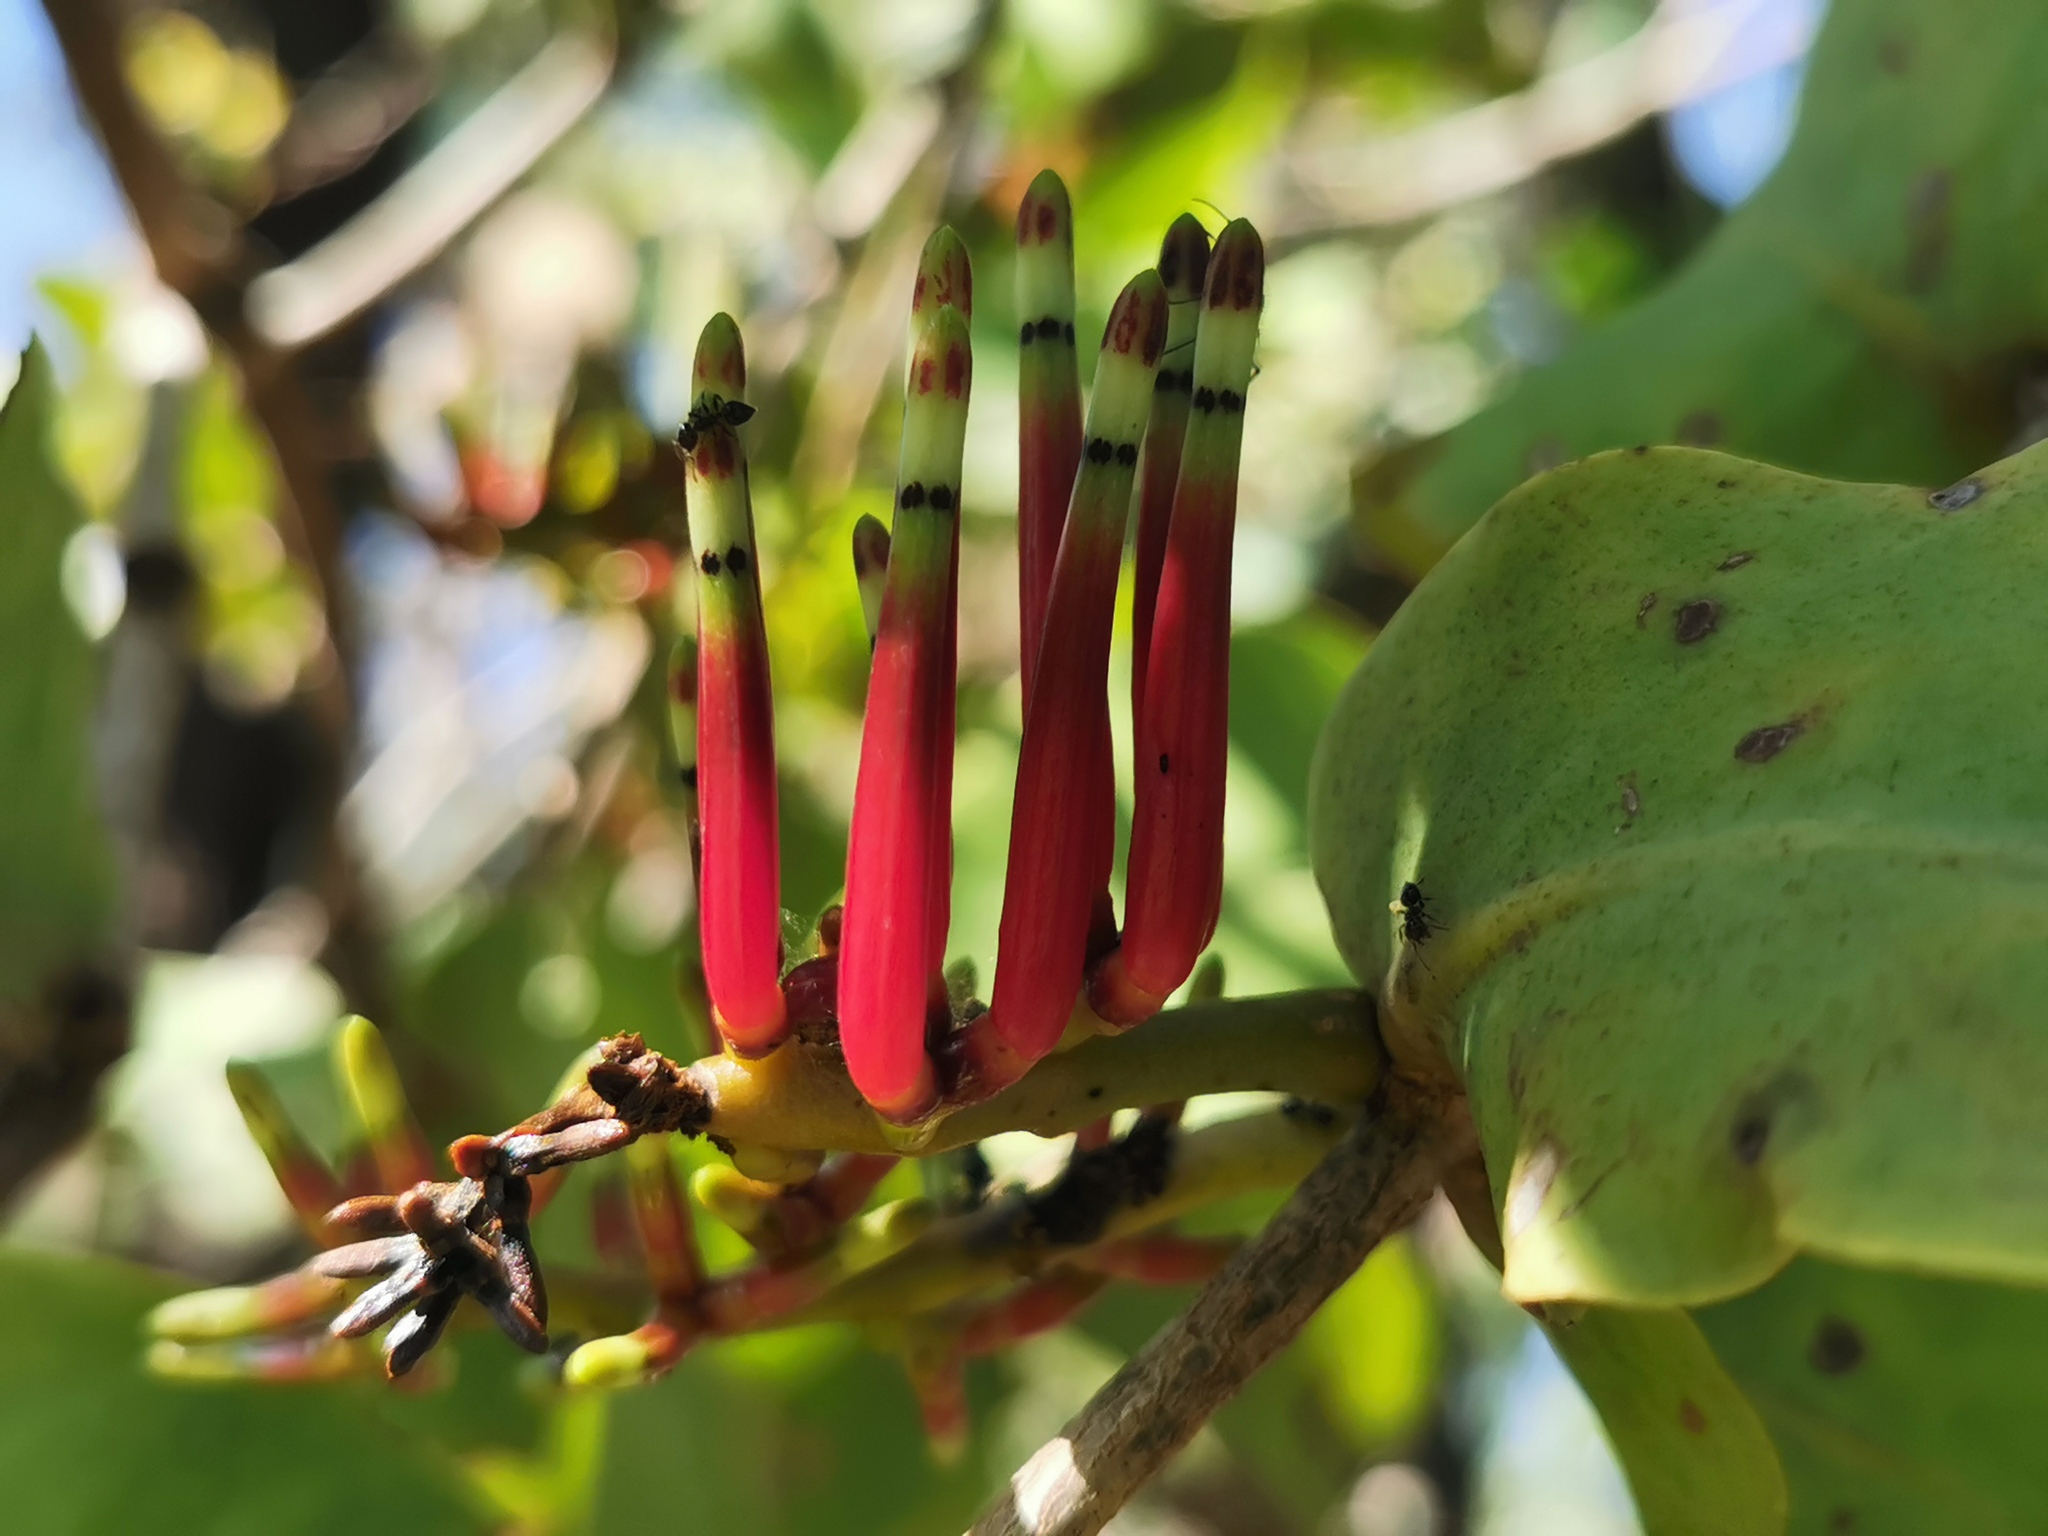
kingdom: Plantae
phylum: Tracheophyta
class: Magnoliopsida
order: Santalales
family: Loranthaceae
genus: Decaisnina
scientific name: Decaisnina signata
